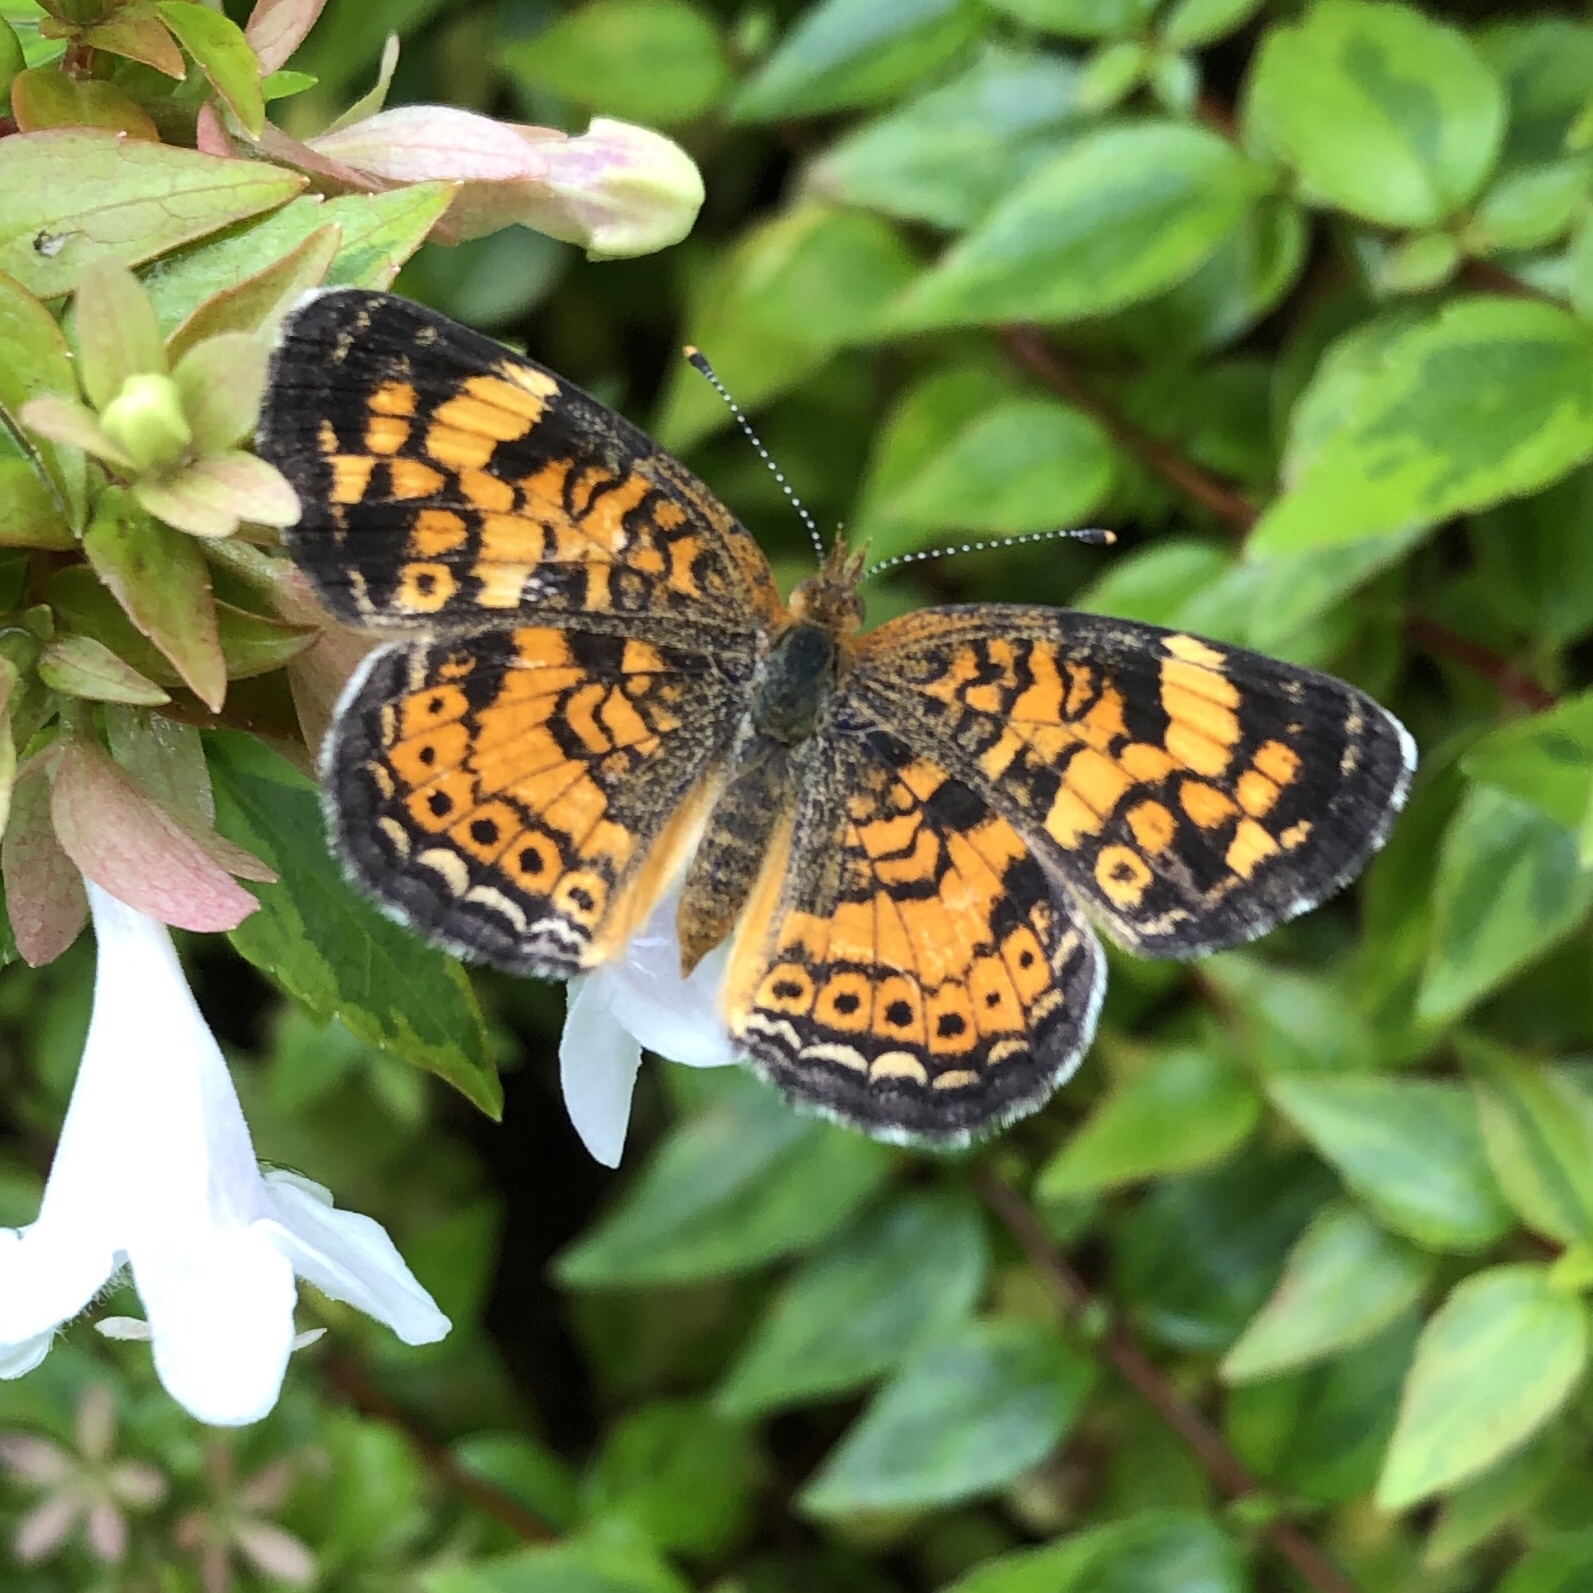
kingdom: Animalia
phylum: Arthropoda
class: Insecta
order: Lepidoptera
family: Nymphalidae
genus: Phyciodes
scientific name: Phyciodes tharos
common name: Pearl crescent
